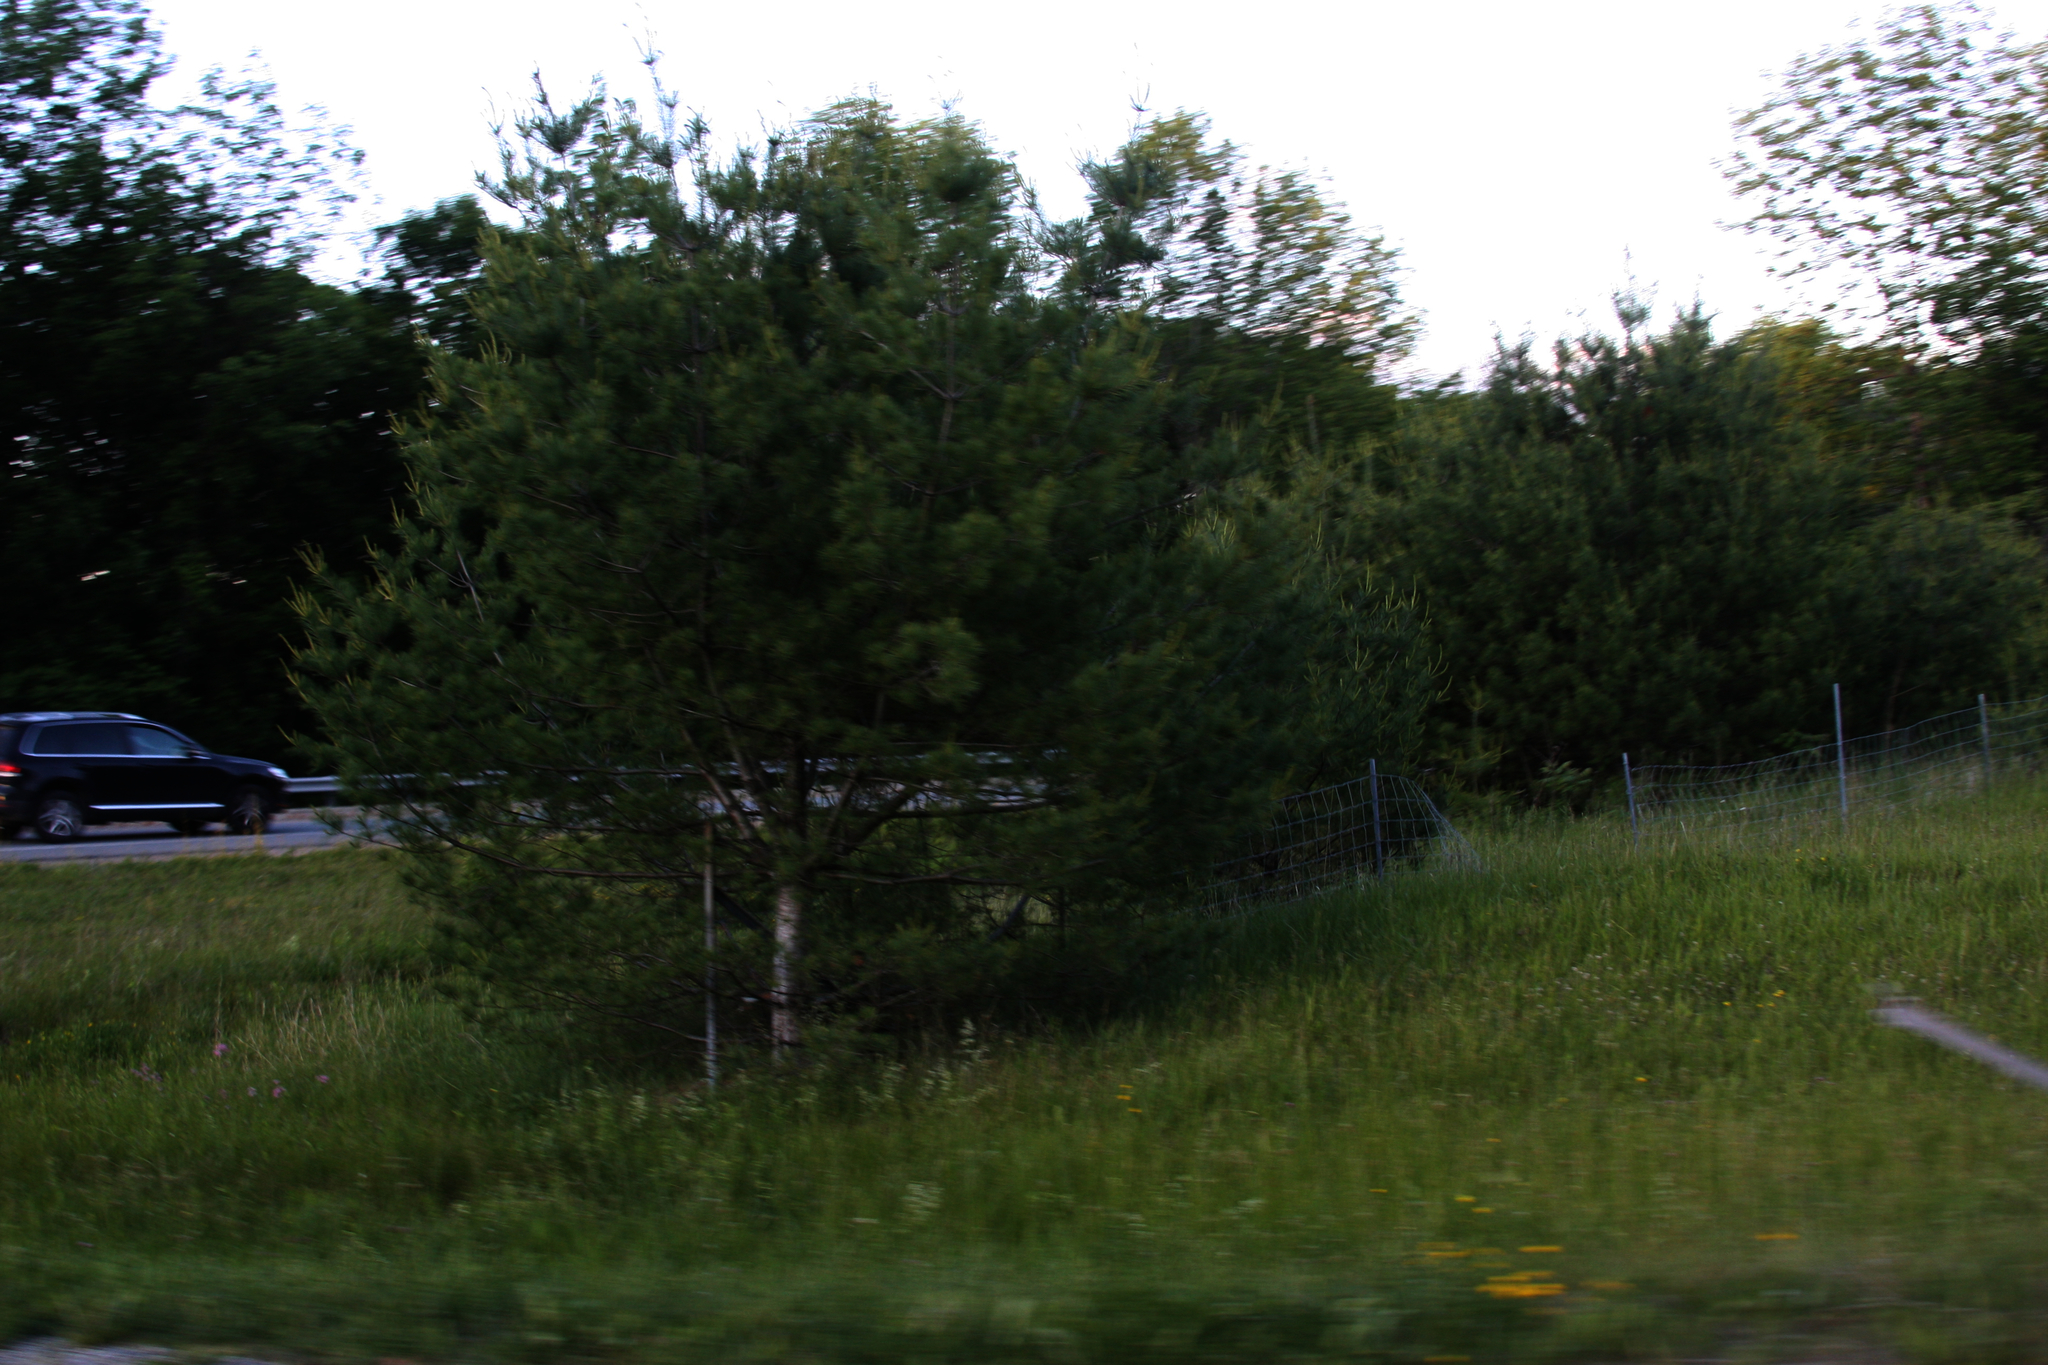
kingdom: Plantae
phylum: Tracheophyta
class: Pinopsida
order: Pinales
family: Pinaceae
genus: Pinus
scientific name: Pinus strobus
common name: Weymouth pine
